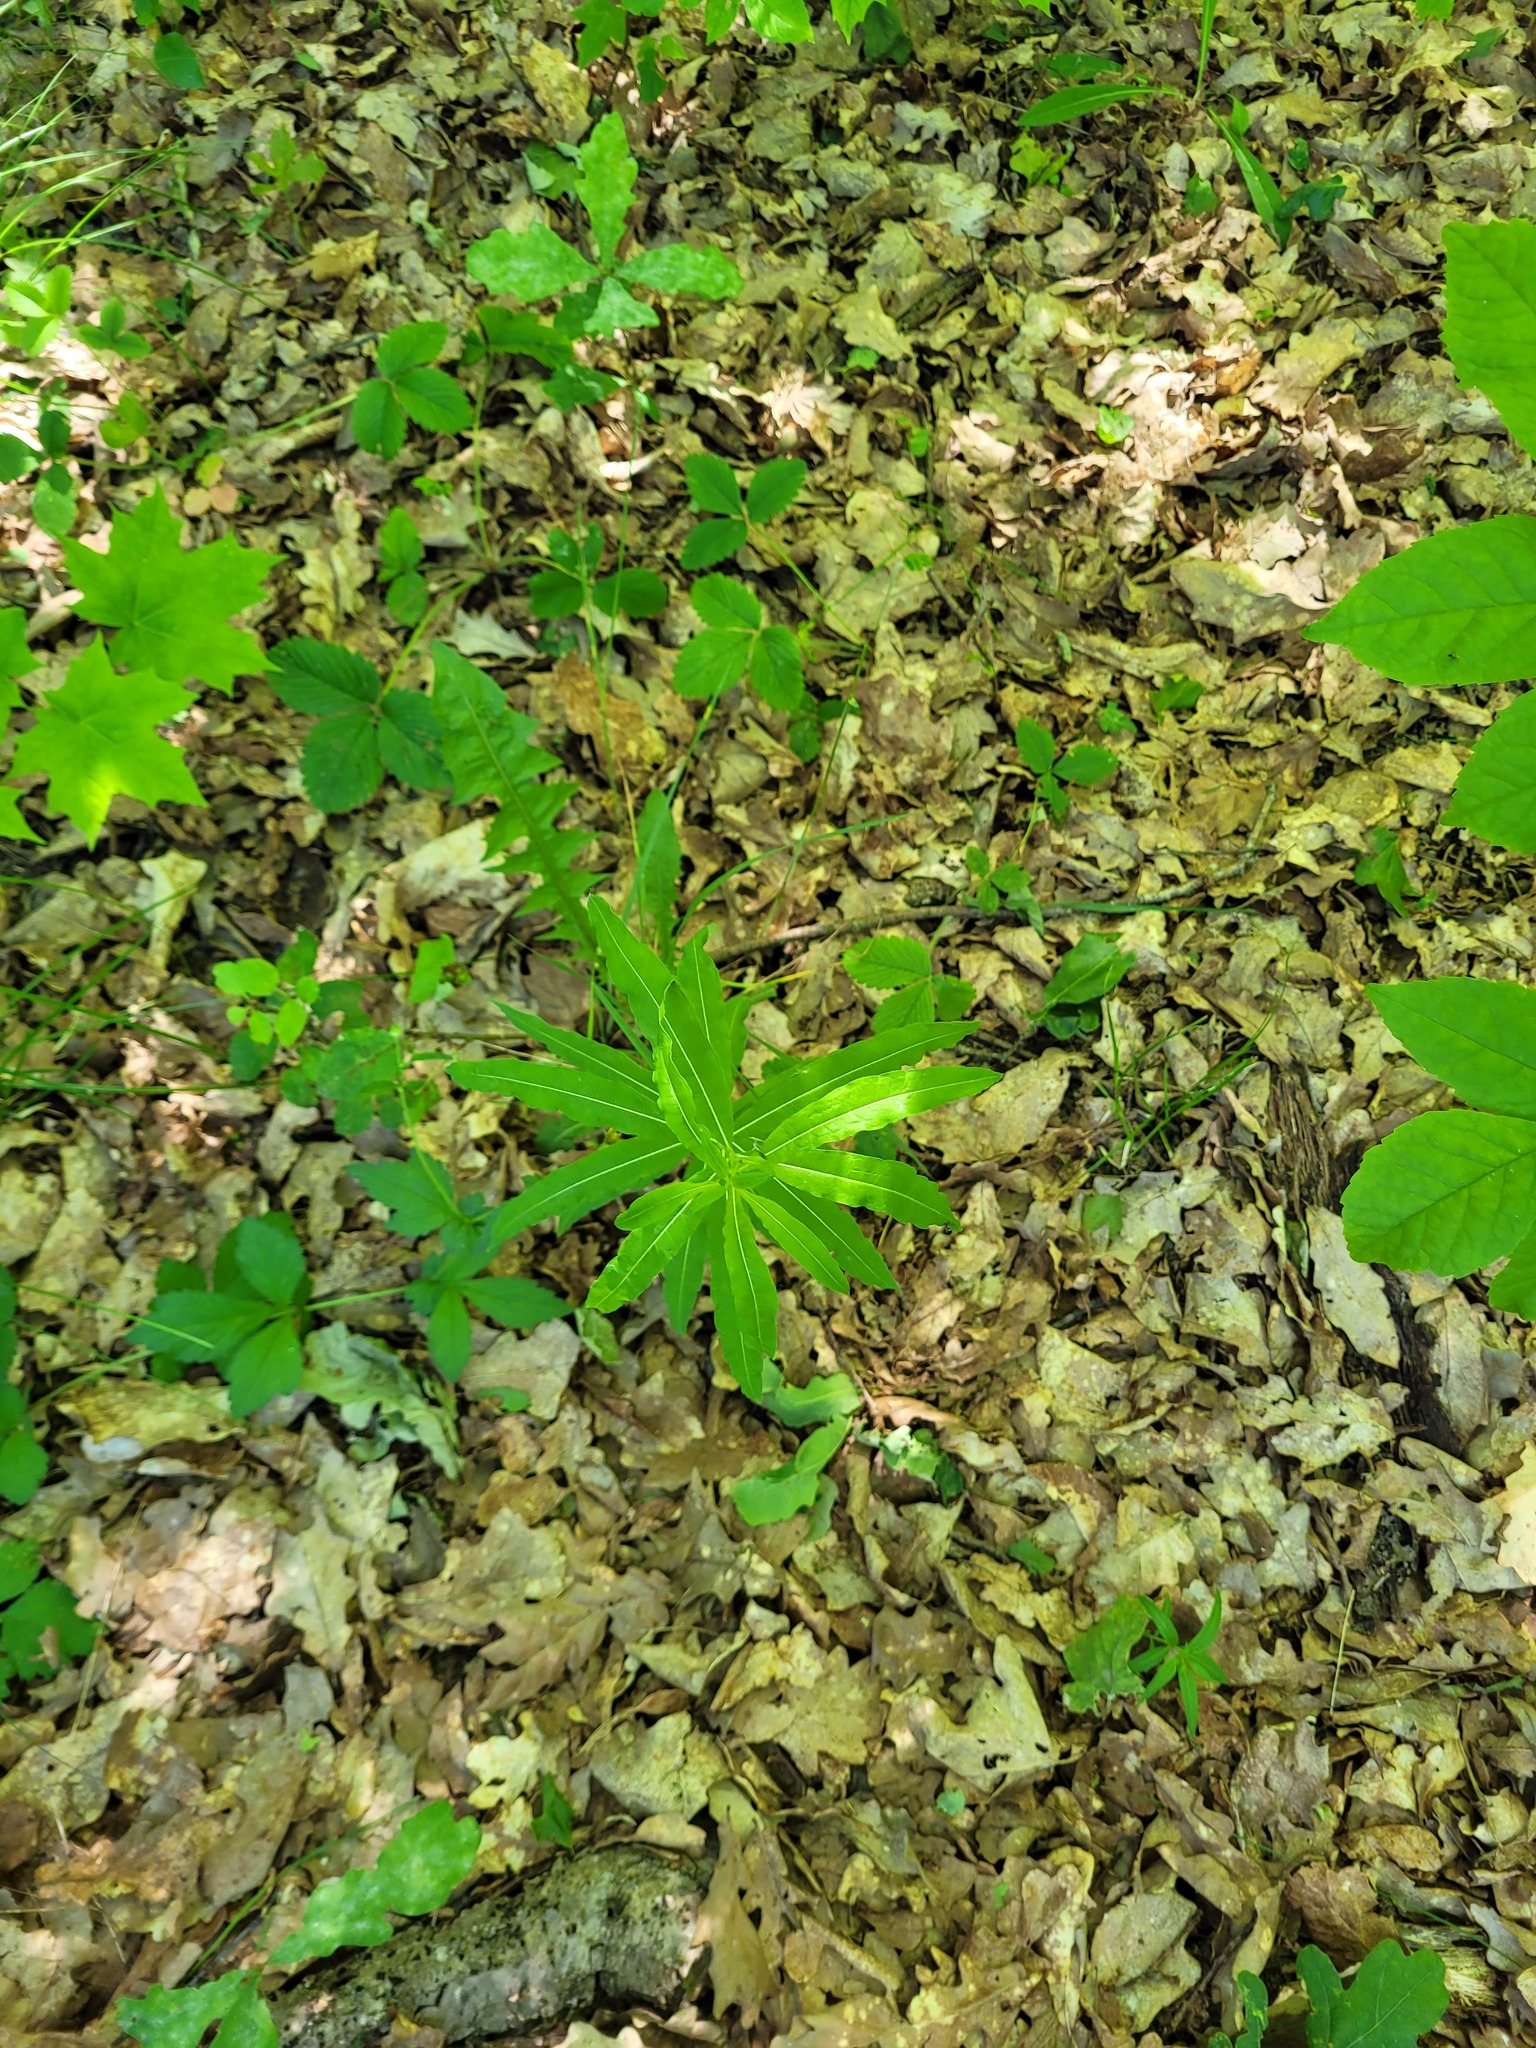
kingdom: Plantae
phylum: Tracheophyta
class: Magnoliopsida
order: Myrtales
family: Onagraceae
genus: Chamaenerion
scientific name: Chamaenerion angustifolium
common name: Fireweed
